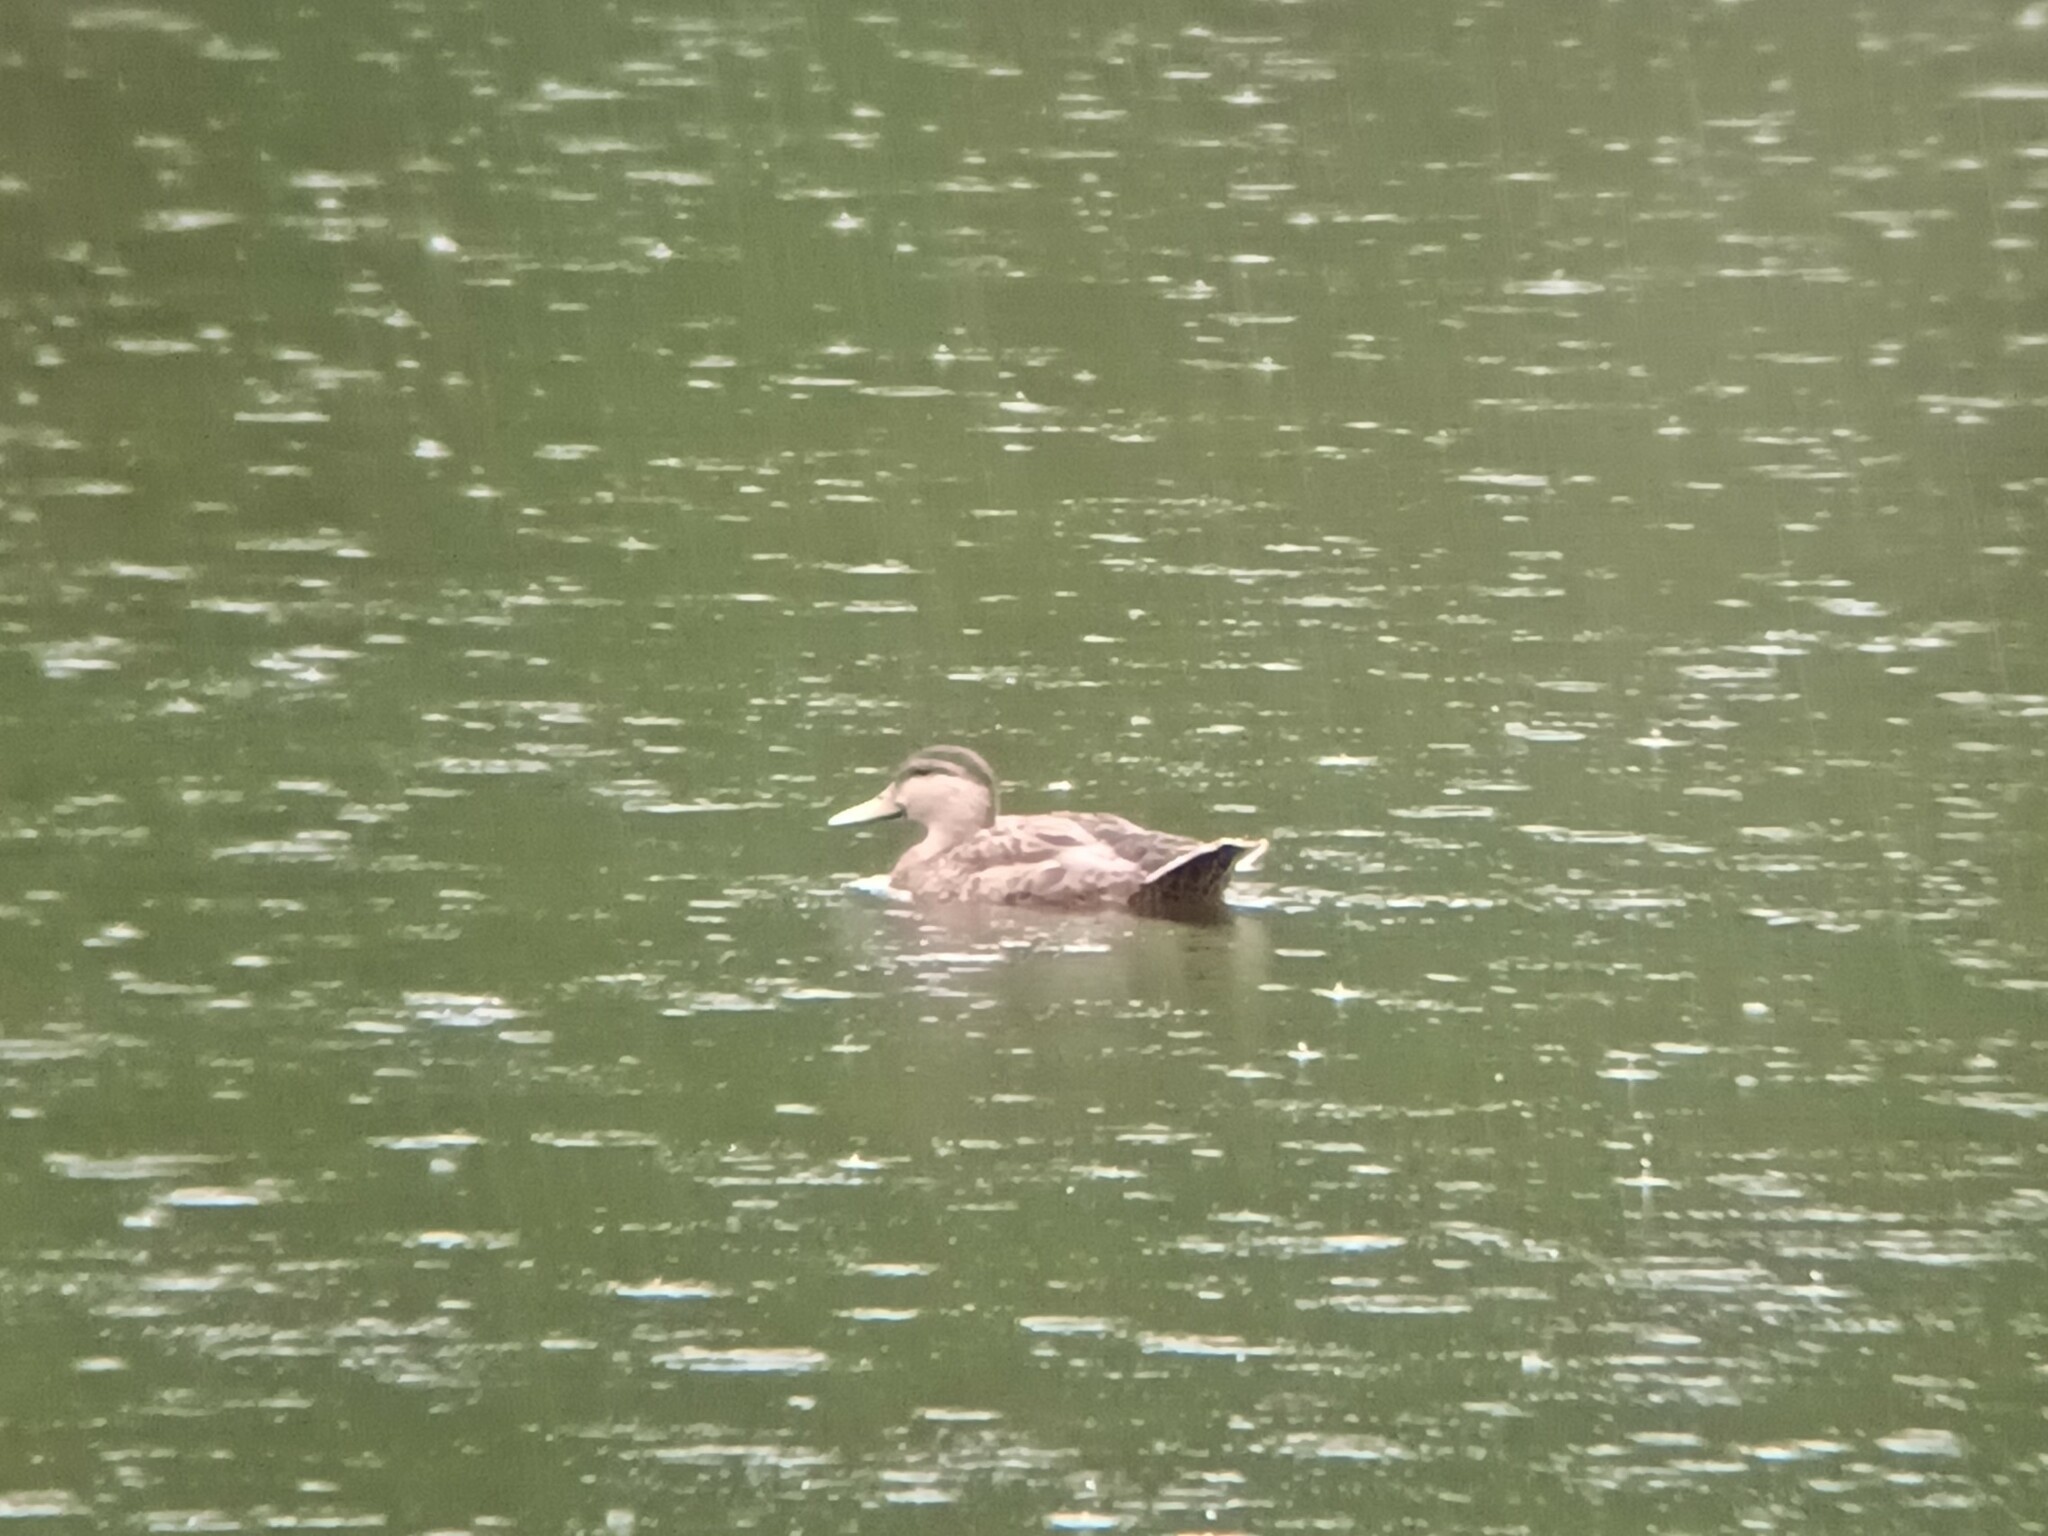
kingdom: Animalia
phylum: Chordata
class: Aves
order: Anseriformes
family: Anatidae
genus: Anas
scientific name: Anas rubripes
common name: American black duck
